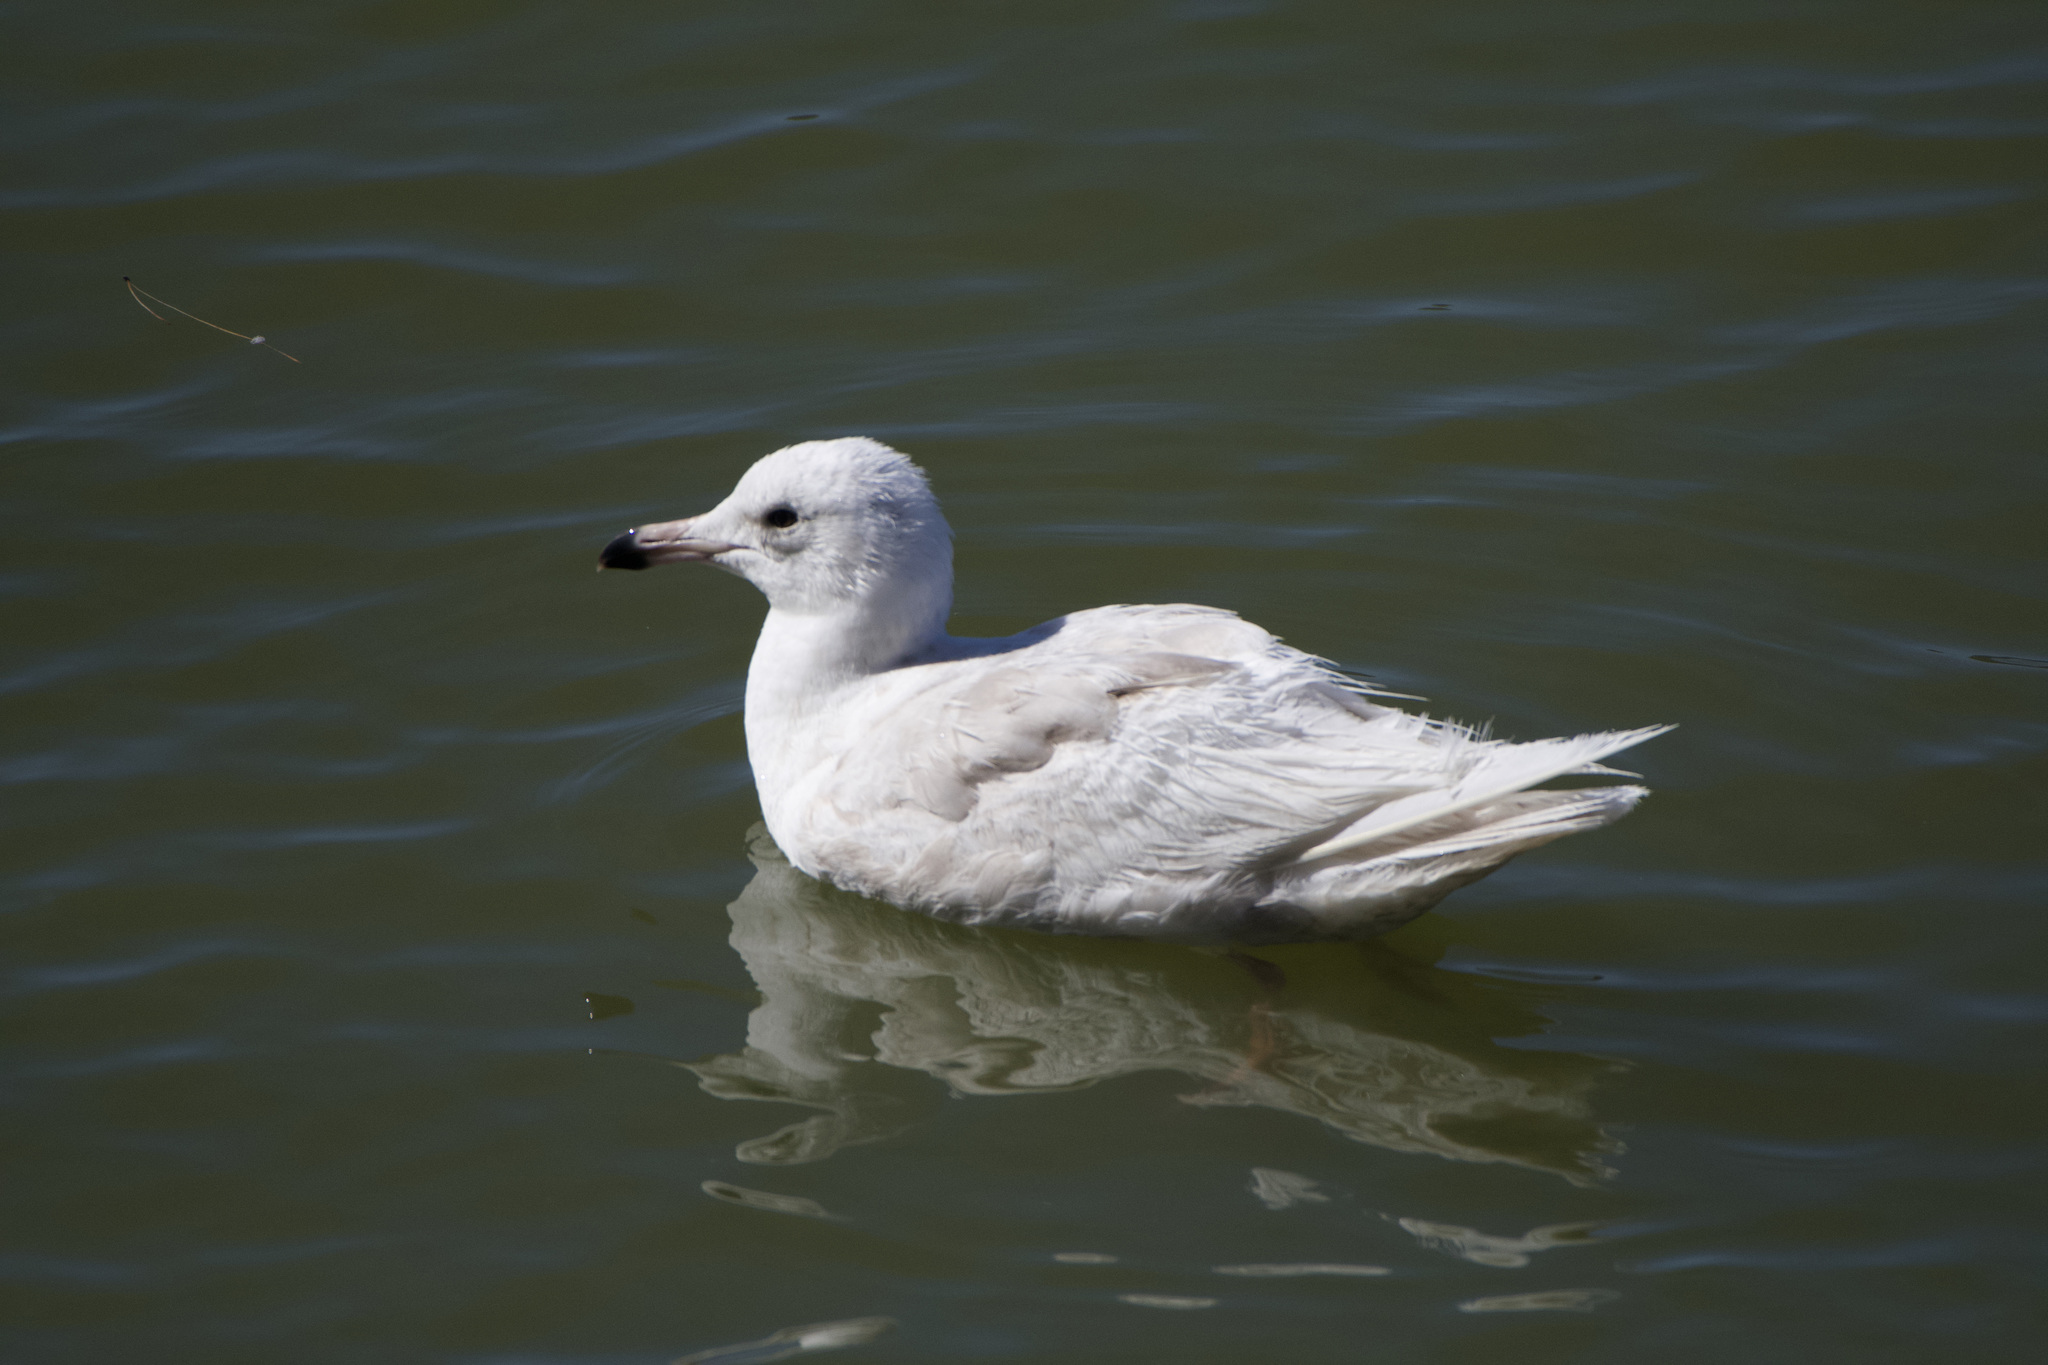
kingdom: Animalia
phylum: Chordata
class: Aves
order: Charadriiformes
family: Laridae
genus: Larus
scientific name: Larus
